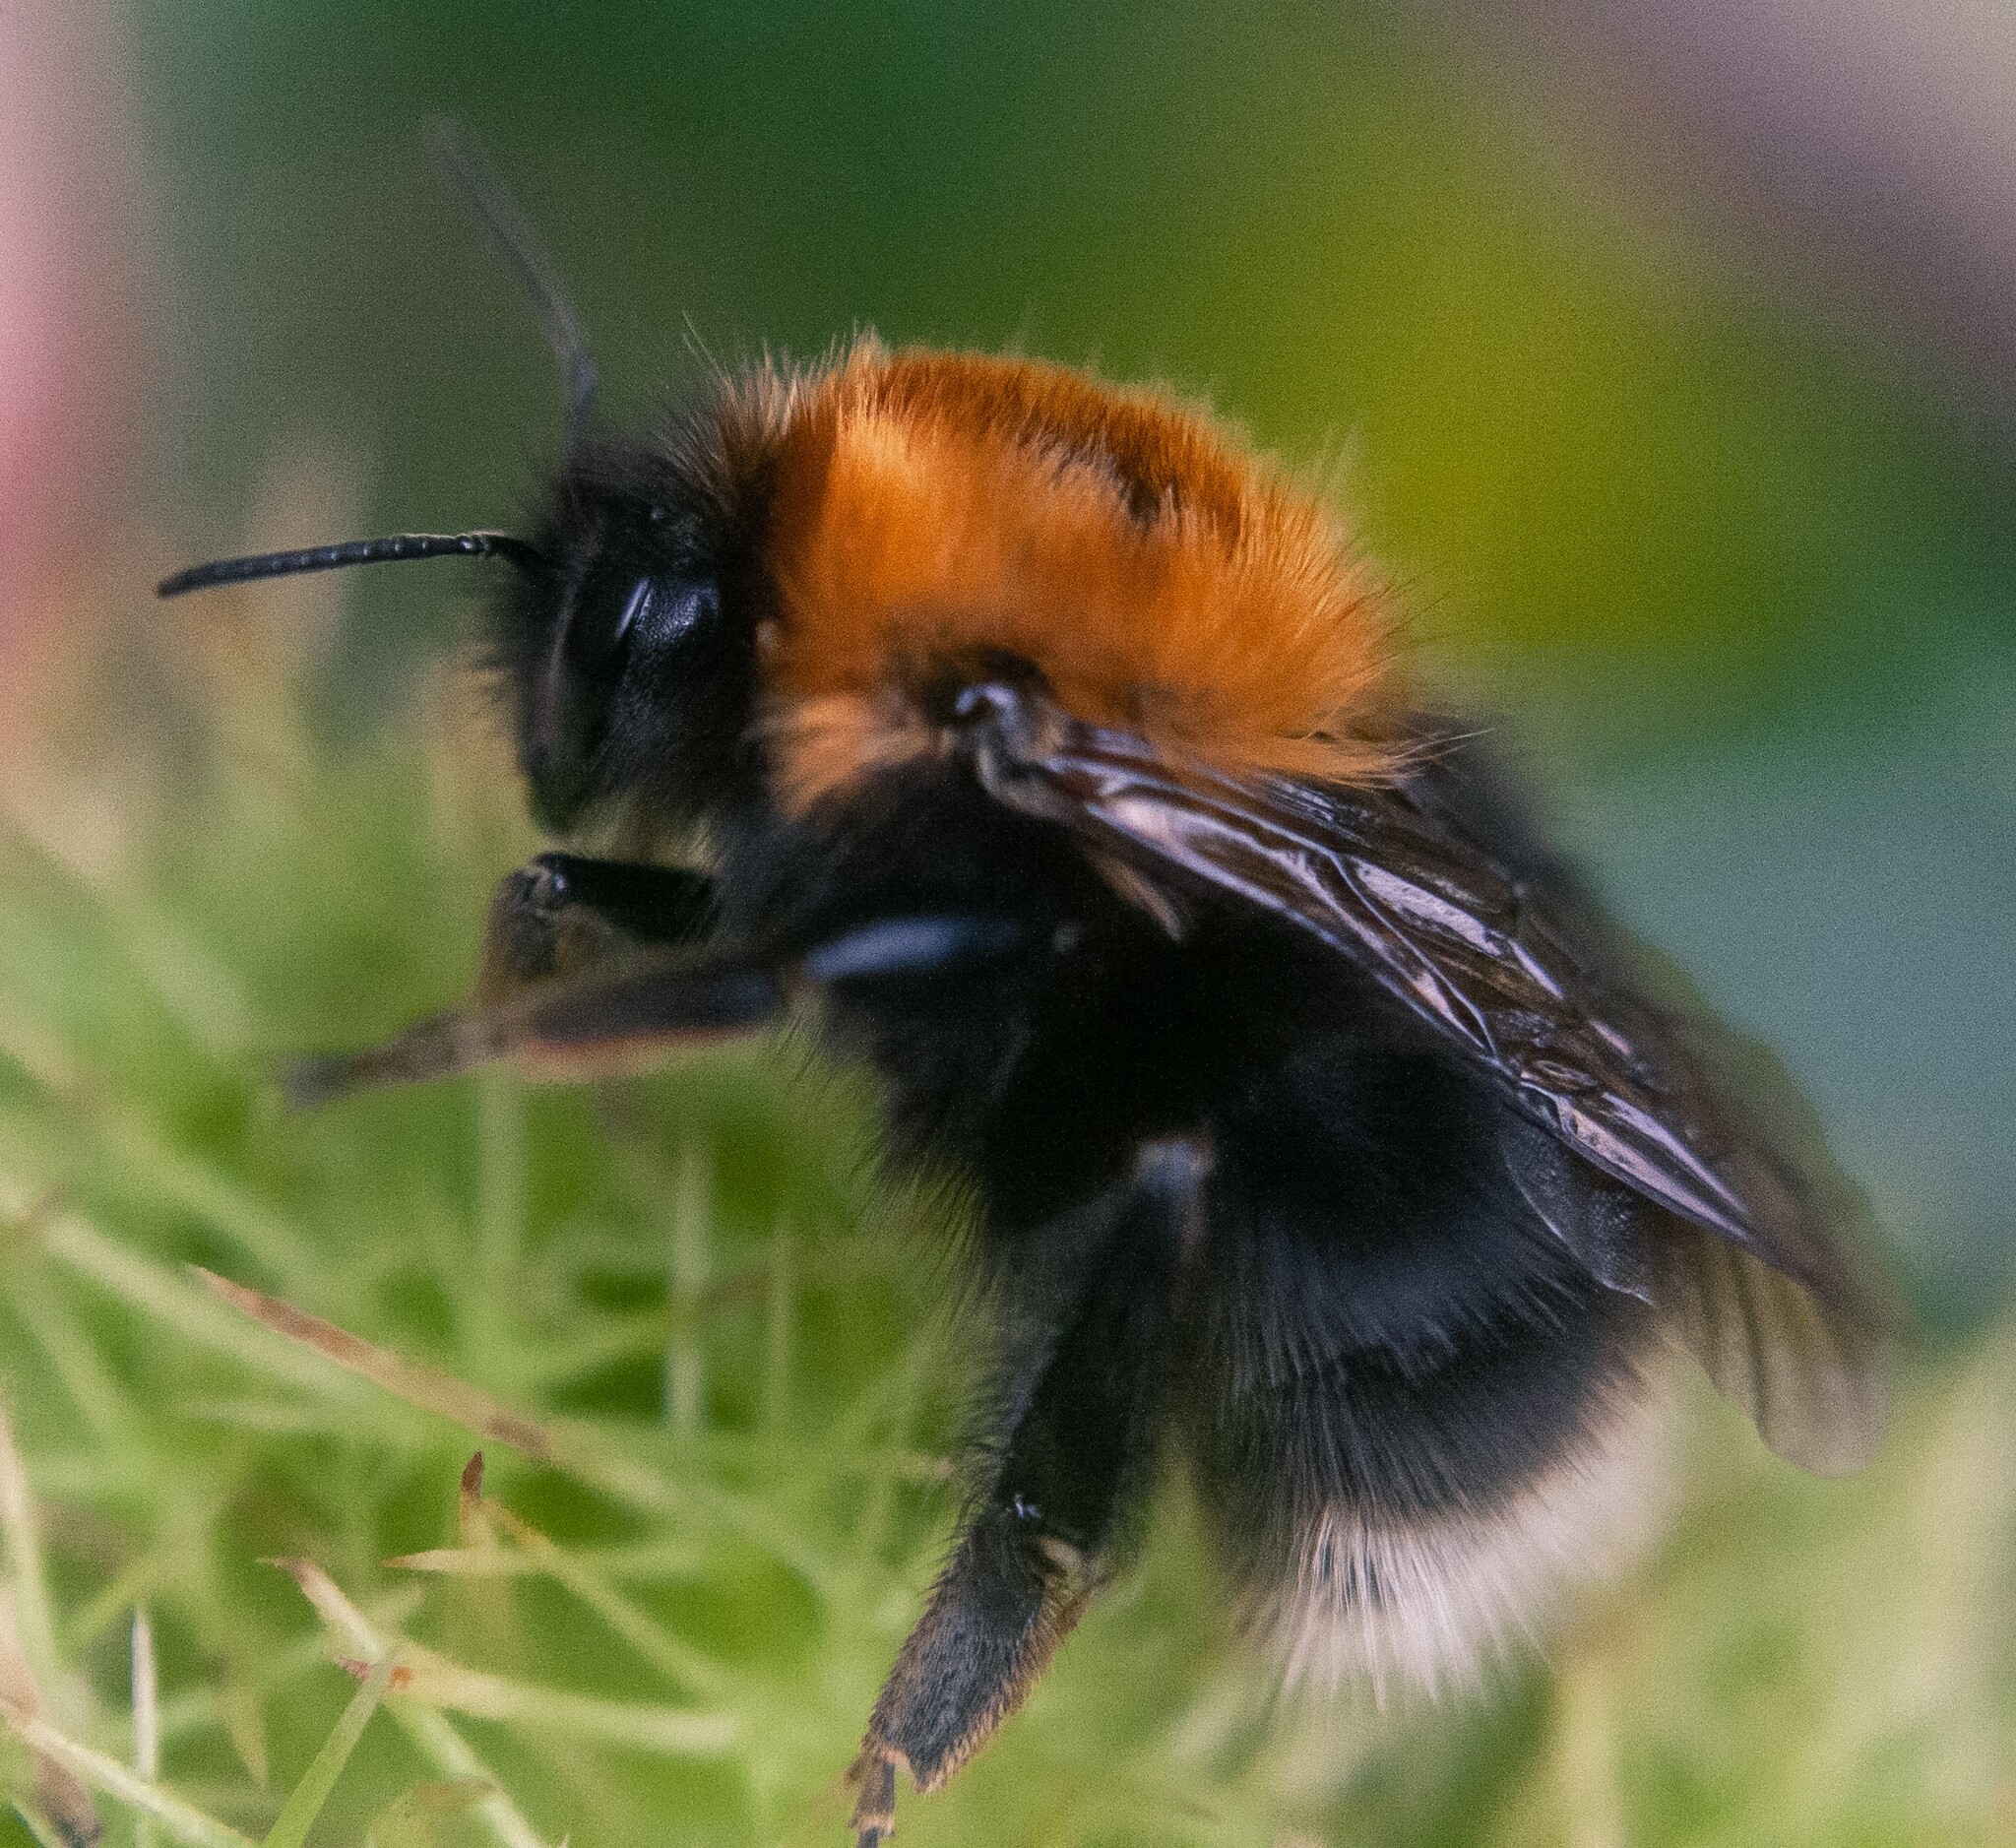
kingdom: Animalia
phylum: Arthropoda
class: Insecta
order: Hymenoptera
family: Apidae
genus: Bombus
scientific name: Bombus hypnorum
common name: New garden bumblebee
